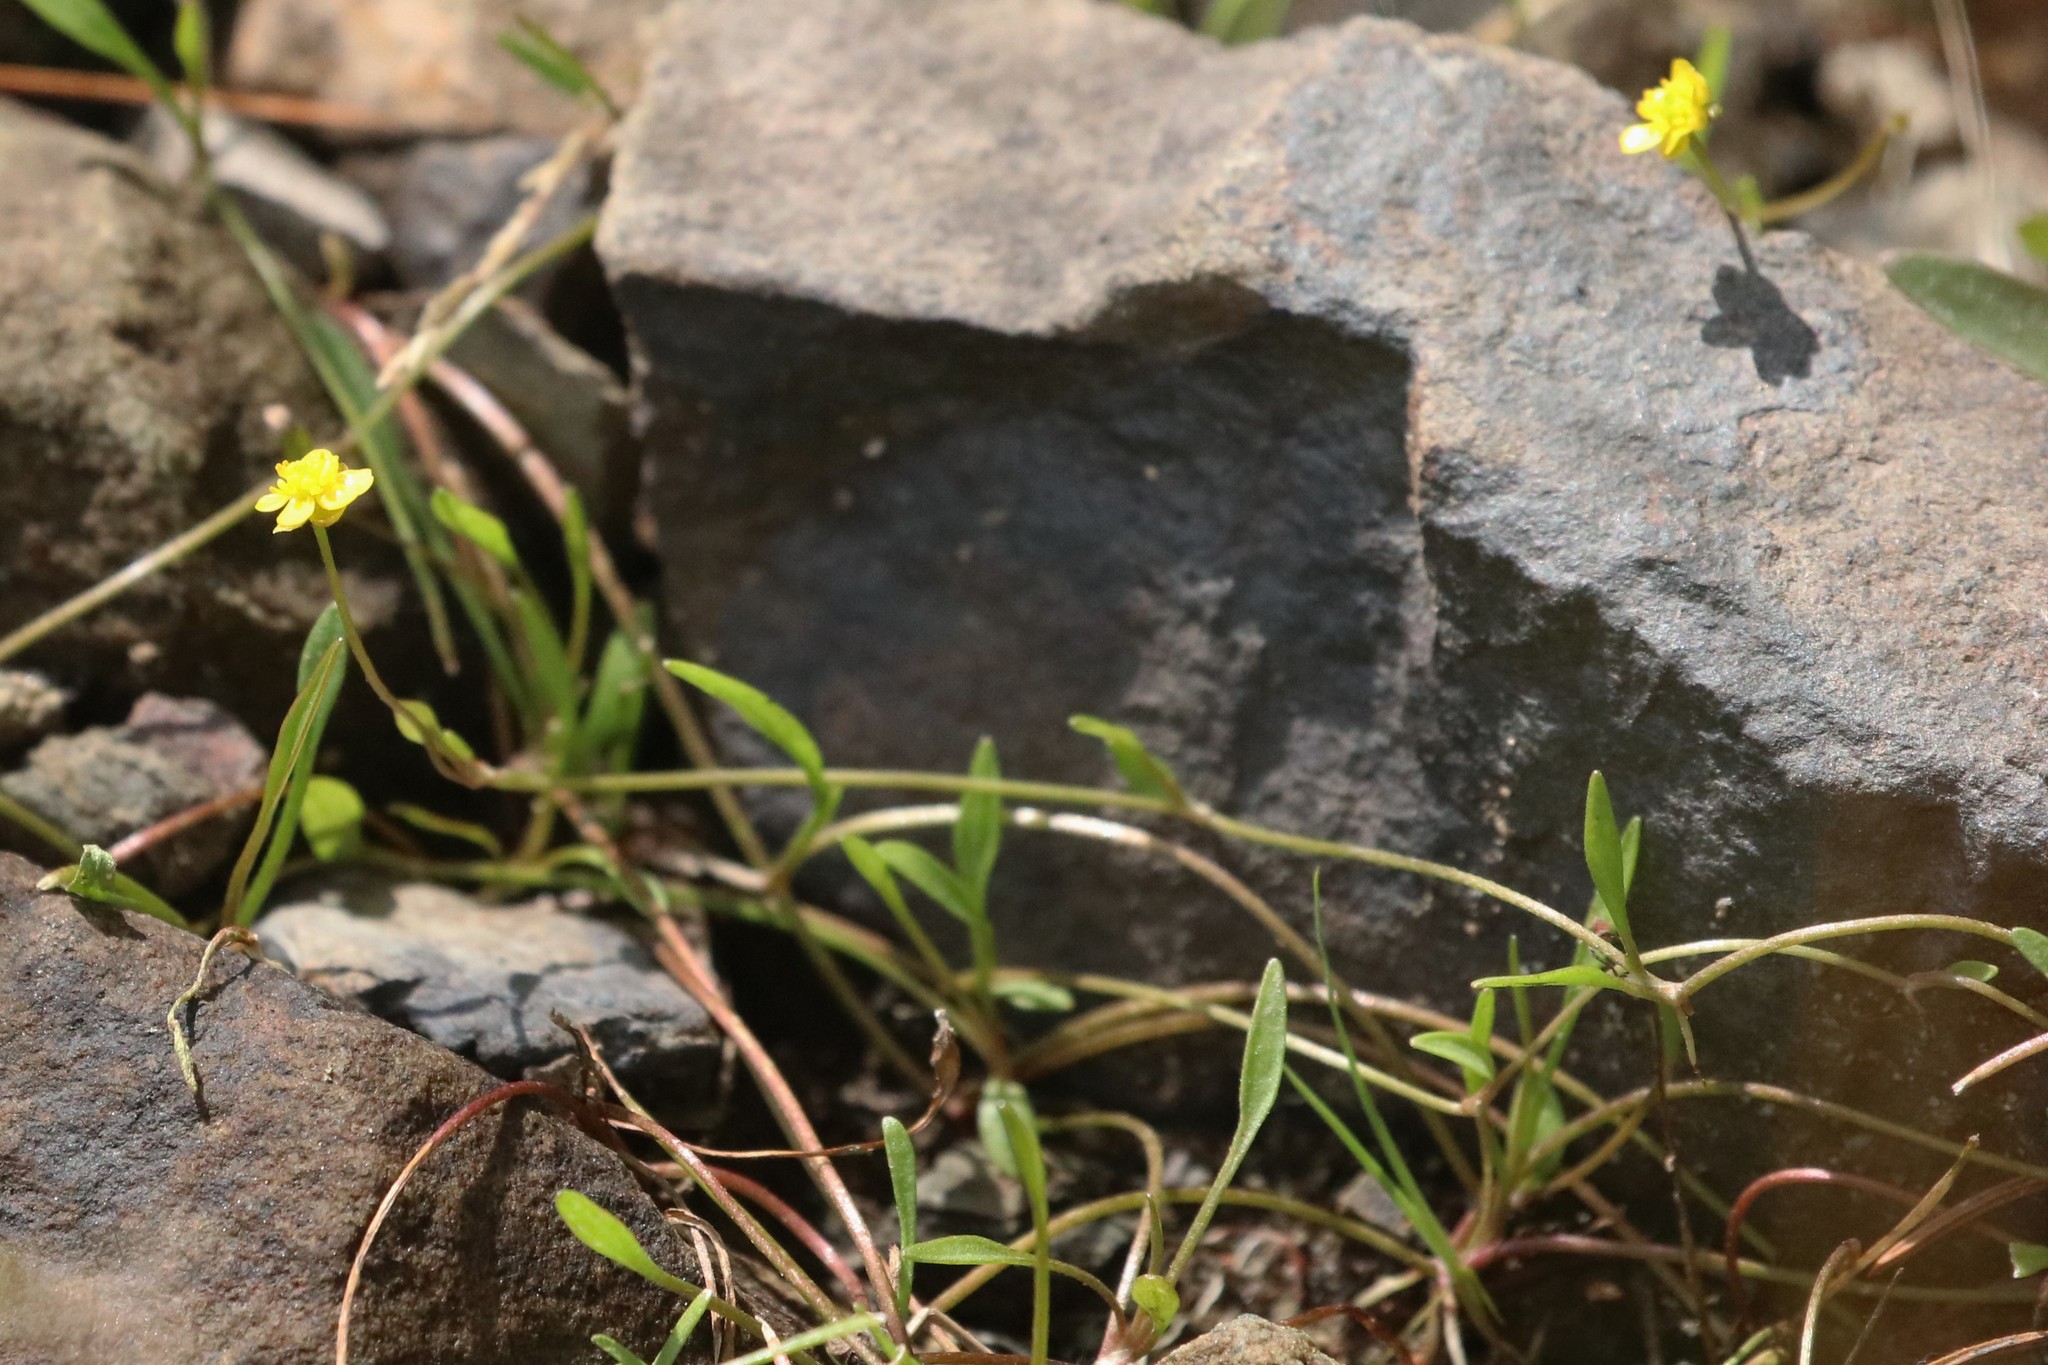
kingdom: Plantae
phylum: Tracheophyta
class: Magnoliopsida
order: Ranunculales
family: Ranunculaceae
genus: Ranunculus
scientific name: Ranunculus flammula
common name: Lesser spearwort
